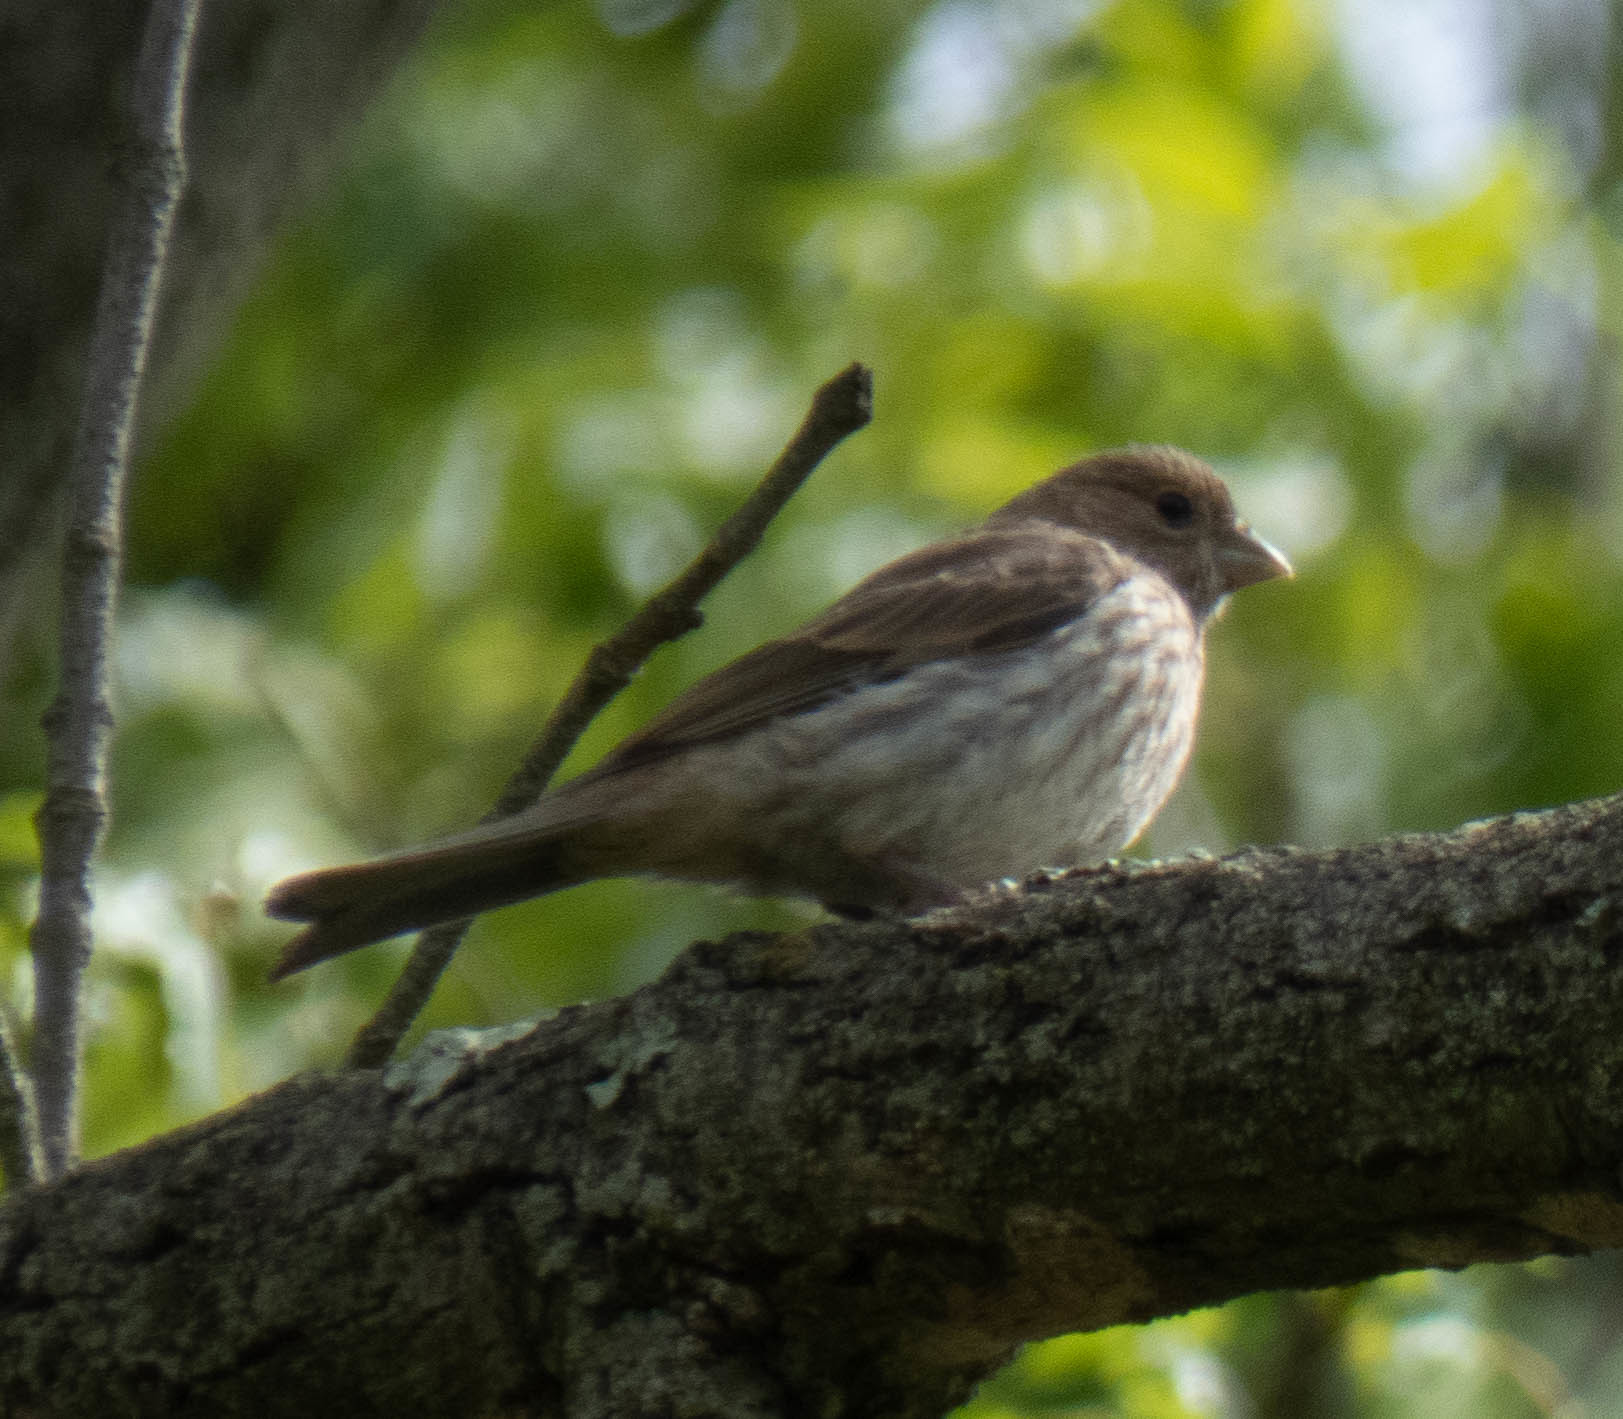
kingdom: Animalia
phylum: Chordata
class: Aves
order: Passeriformes
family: Fringillidae
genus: Haemorhous
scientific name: Haemorhous mexicanus
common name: House finch
